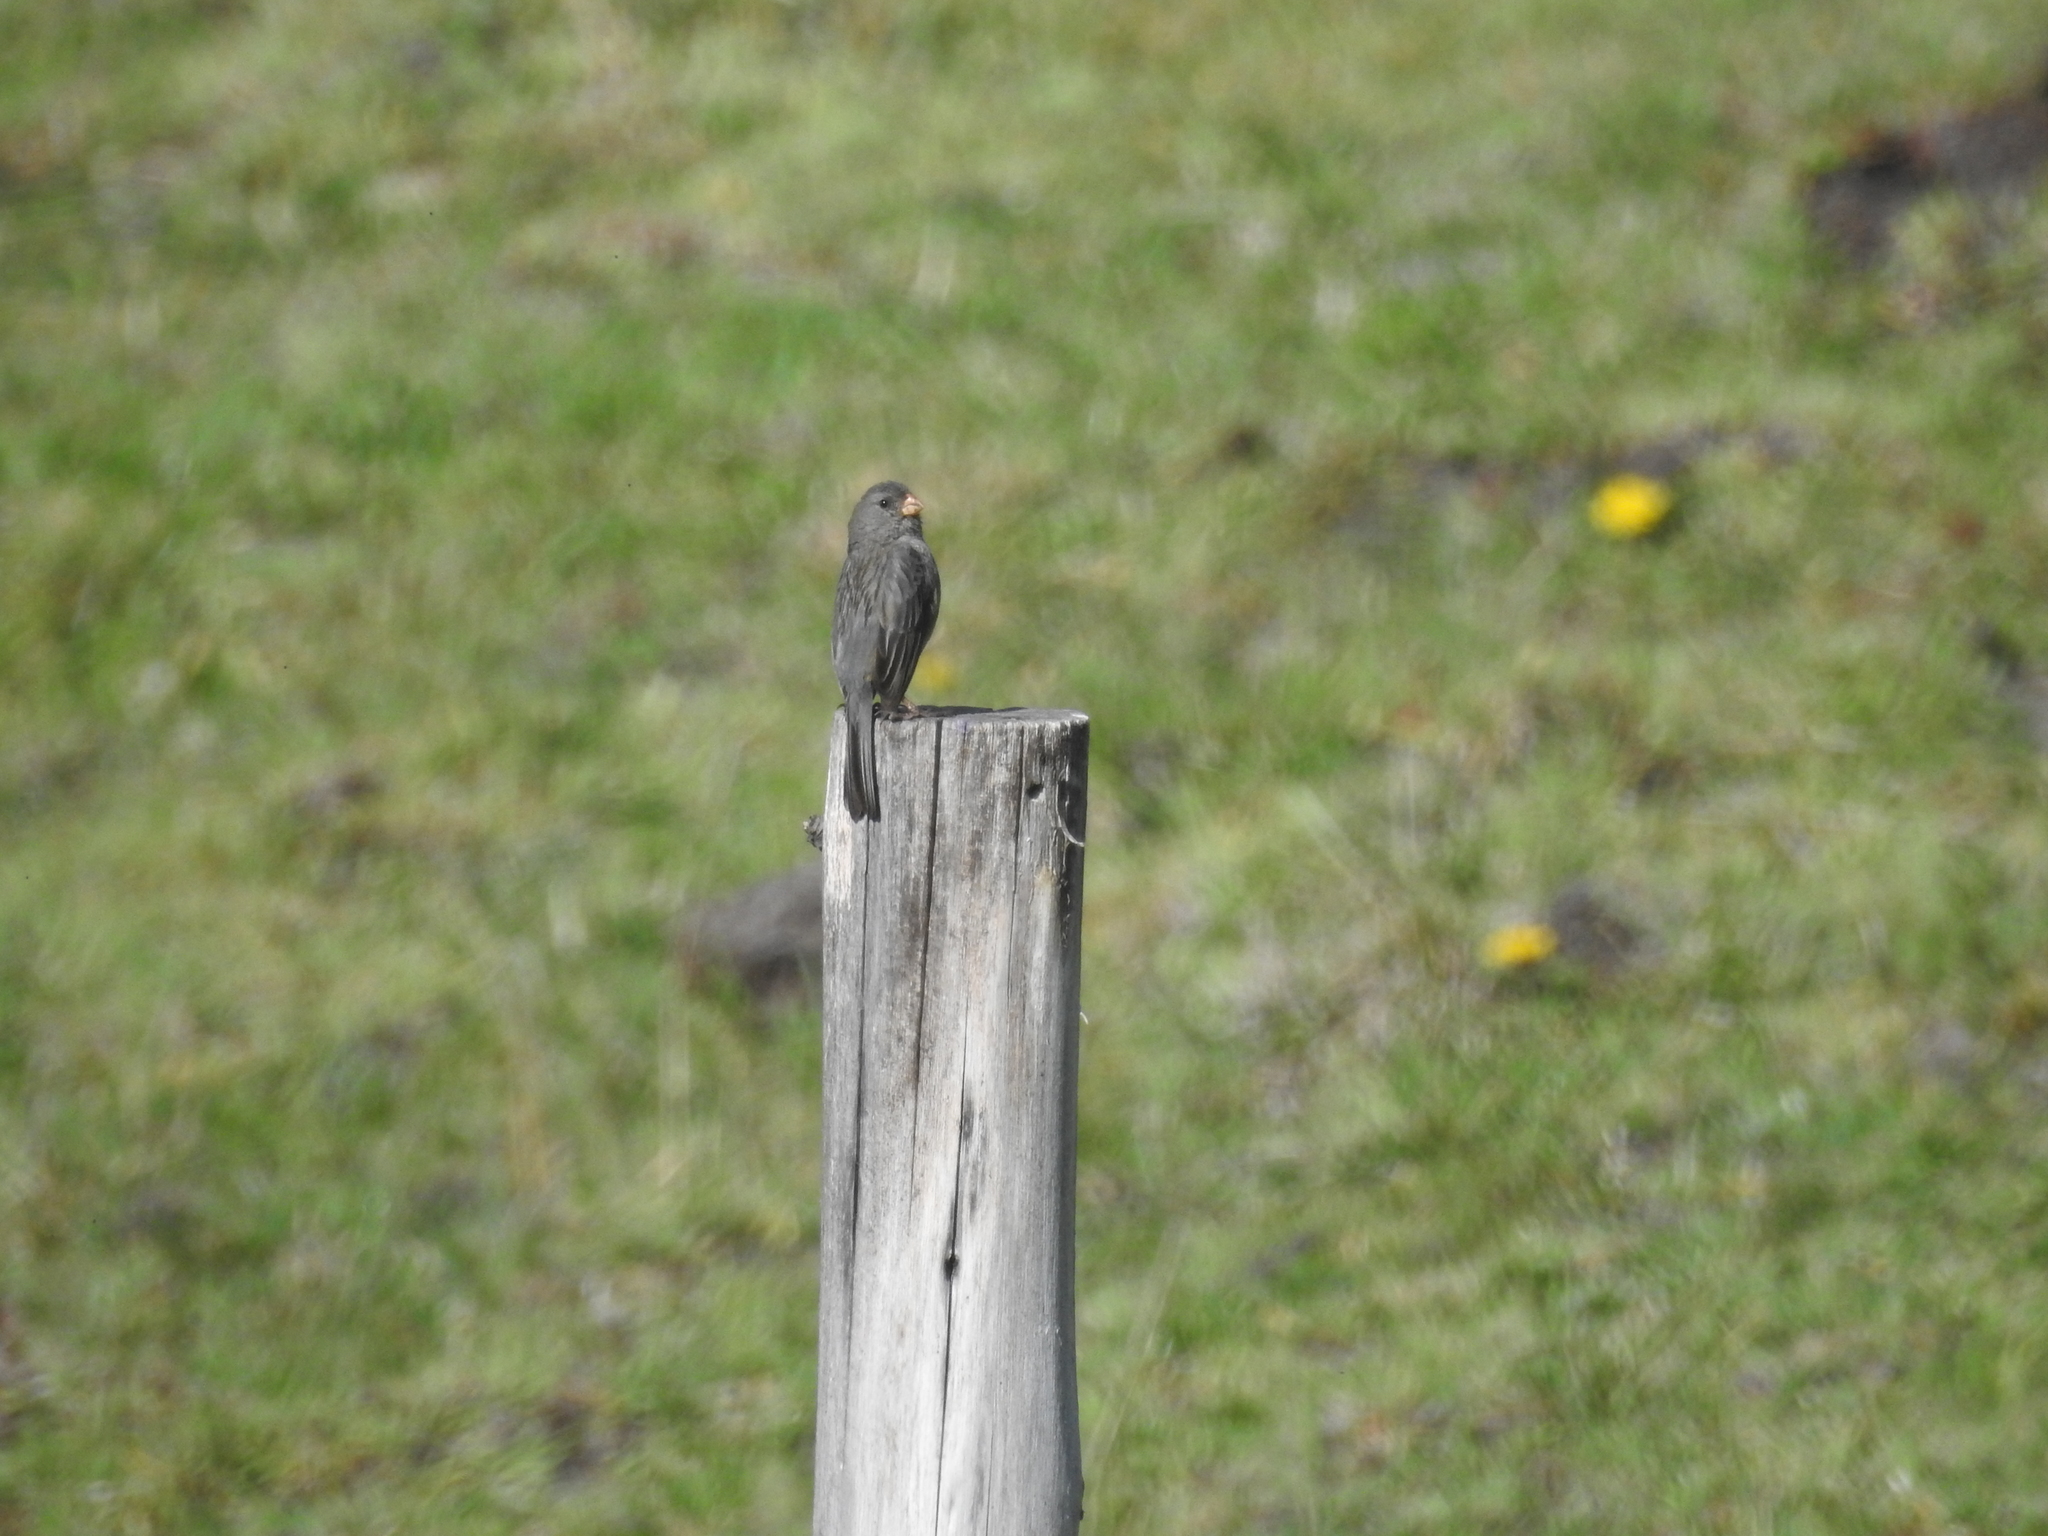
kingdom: Animalia
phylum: Chordata
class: Aves
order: Passeriformes
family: Thraupidae
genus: Catamenia
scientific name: Catamenia inornata
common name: Plain-colored seedeater
